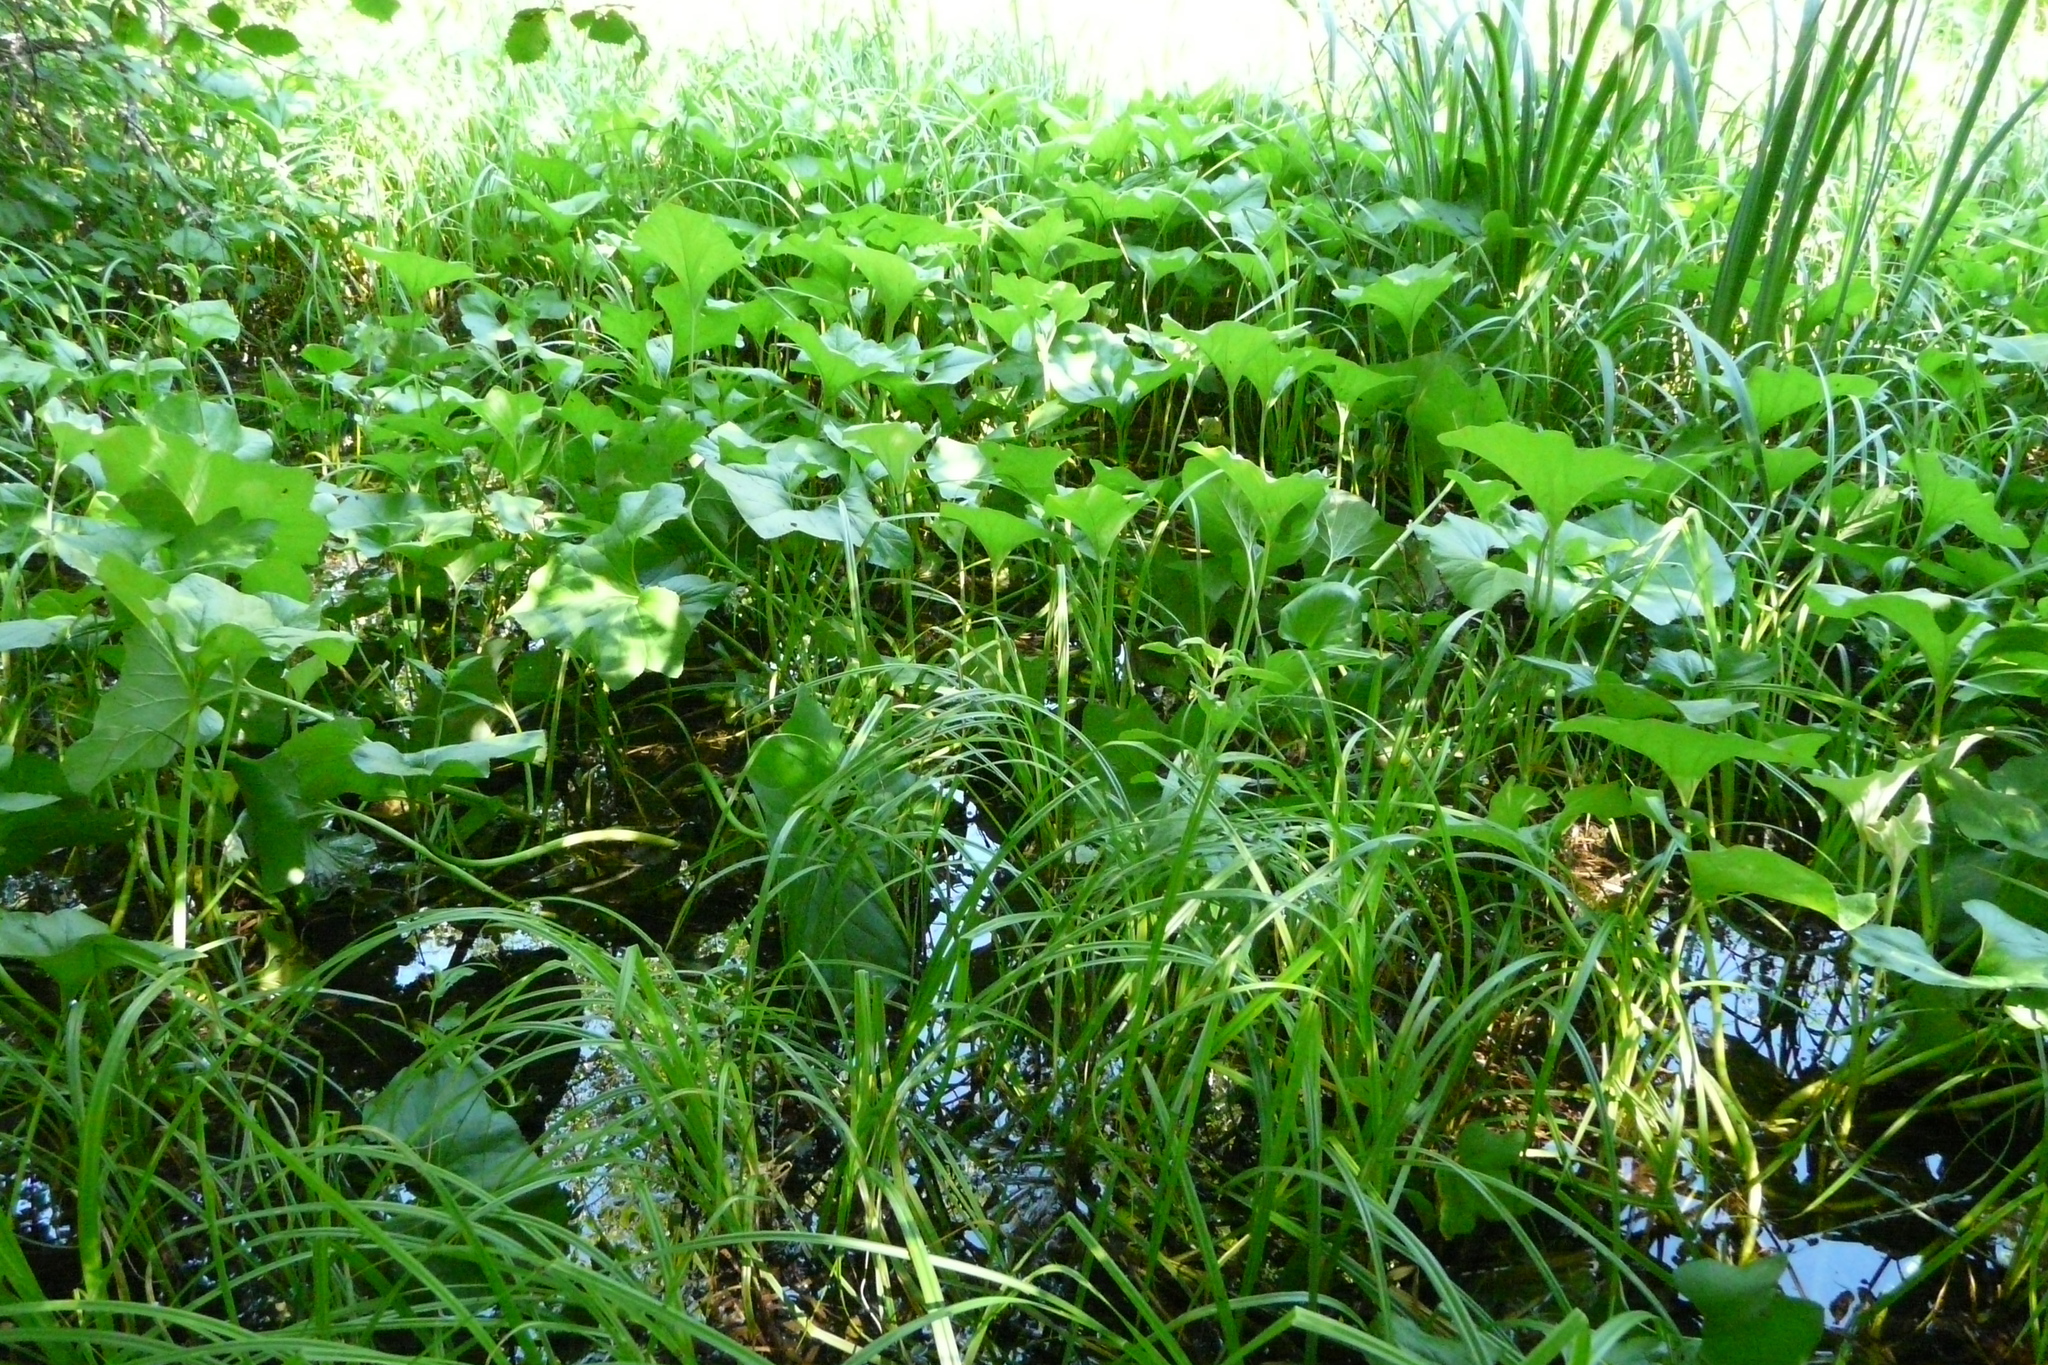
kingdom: Plantae
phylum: Tracheophyta
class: Magnoliopsida
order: Asterales
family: Asteraceae
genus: Petasites
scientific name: Petasites spurius
